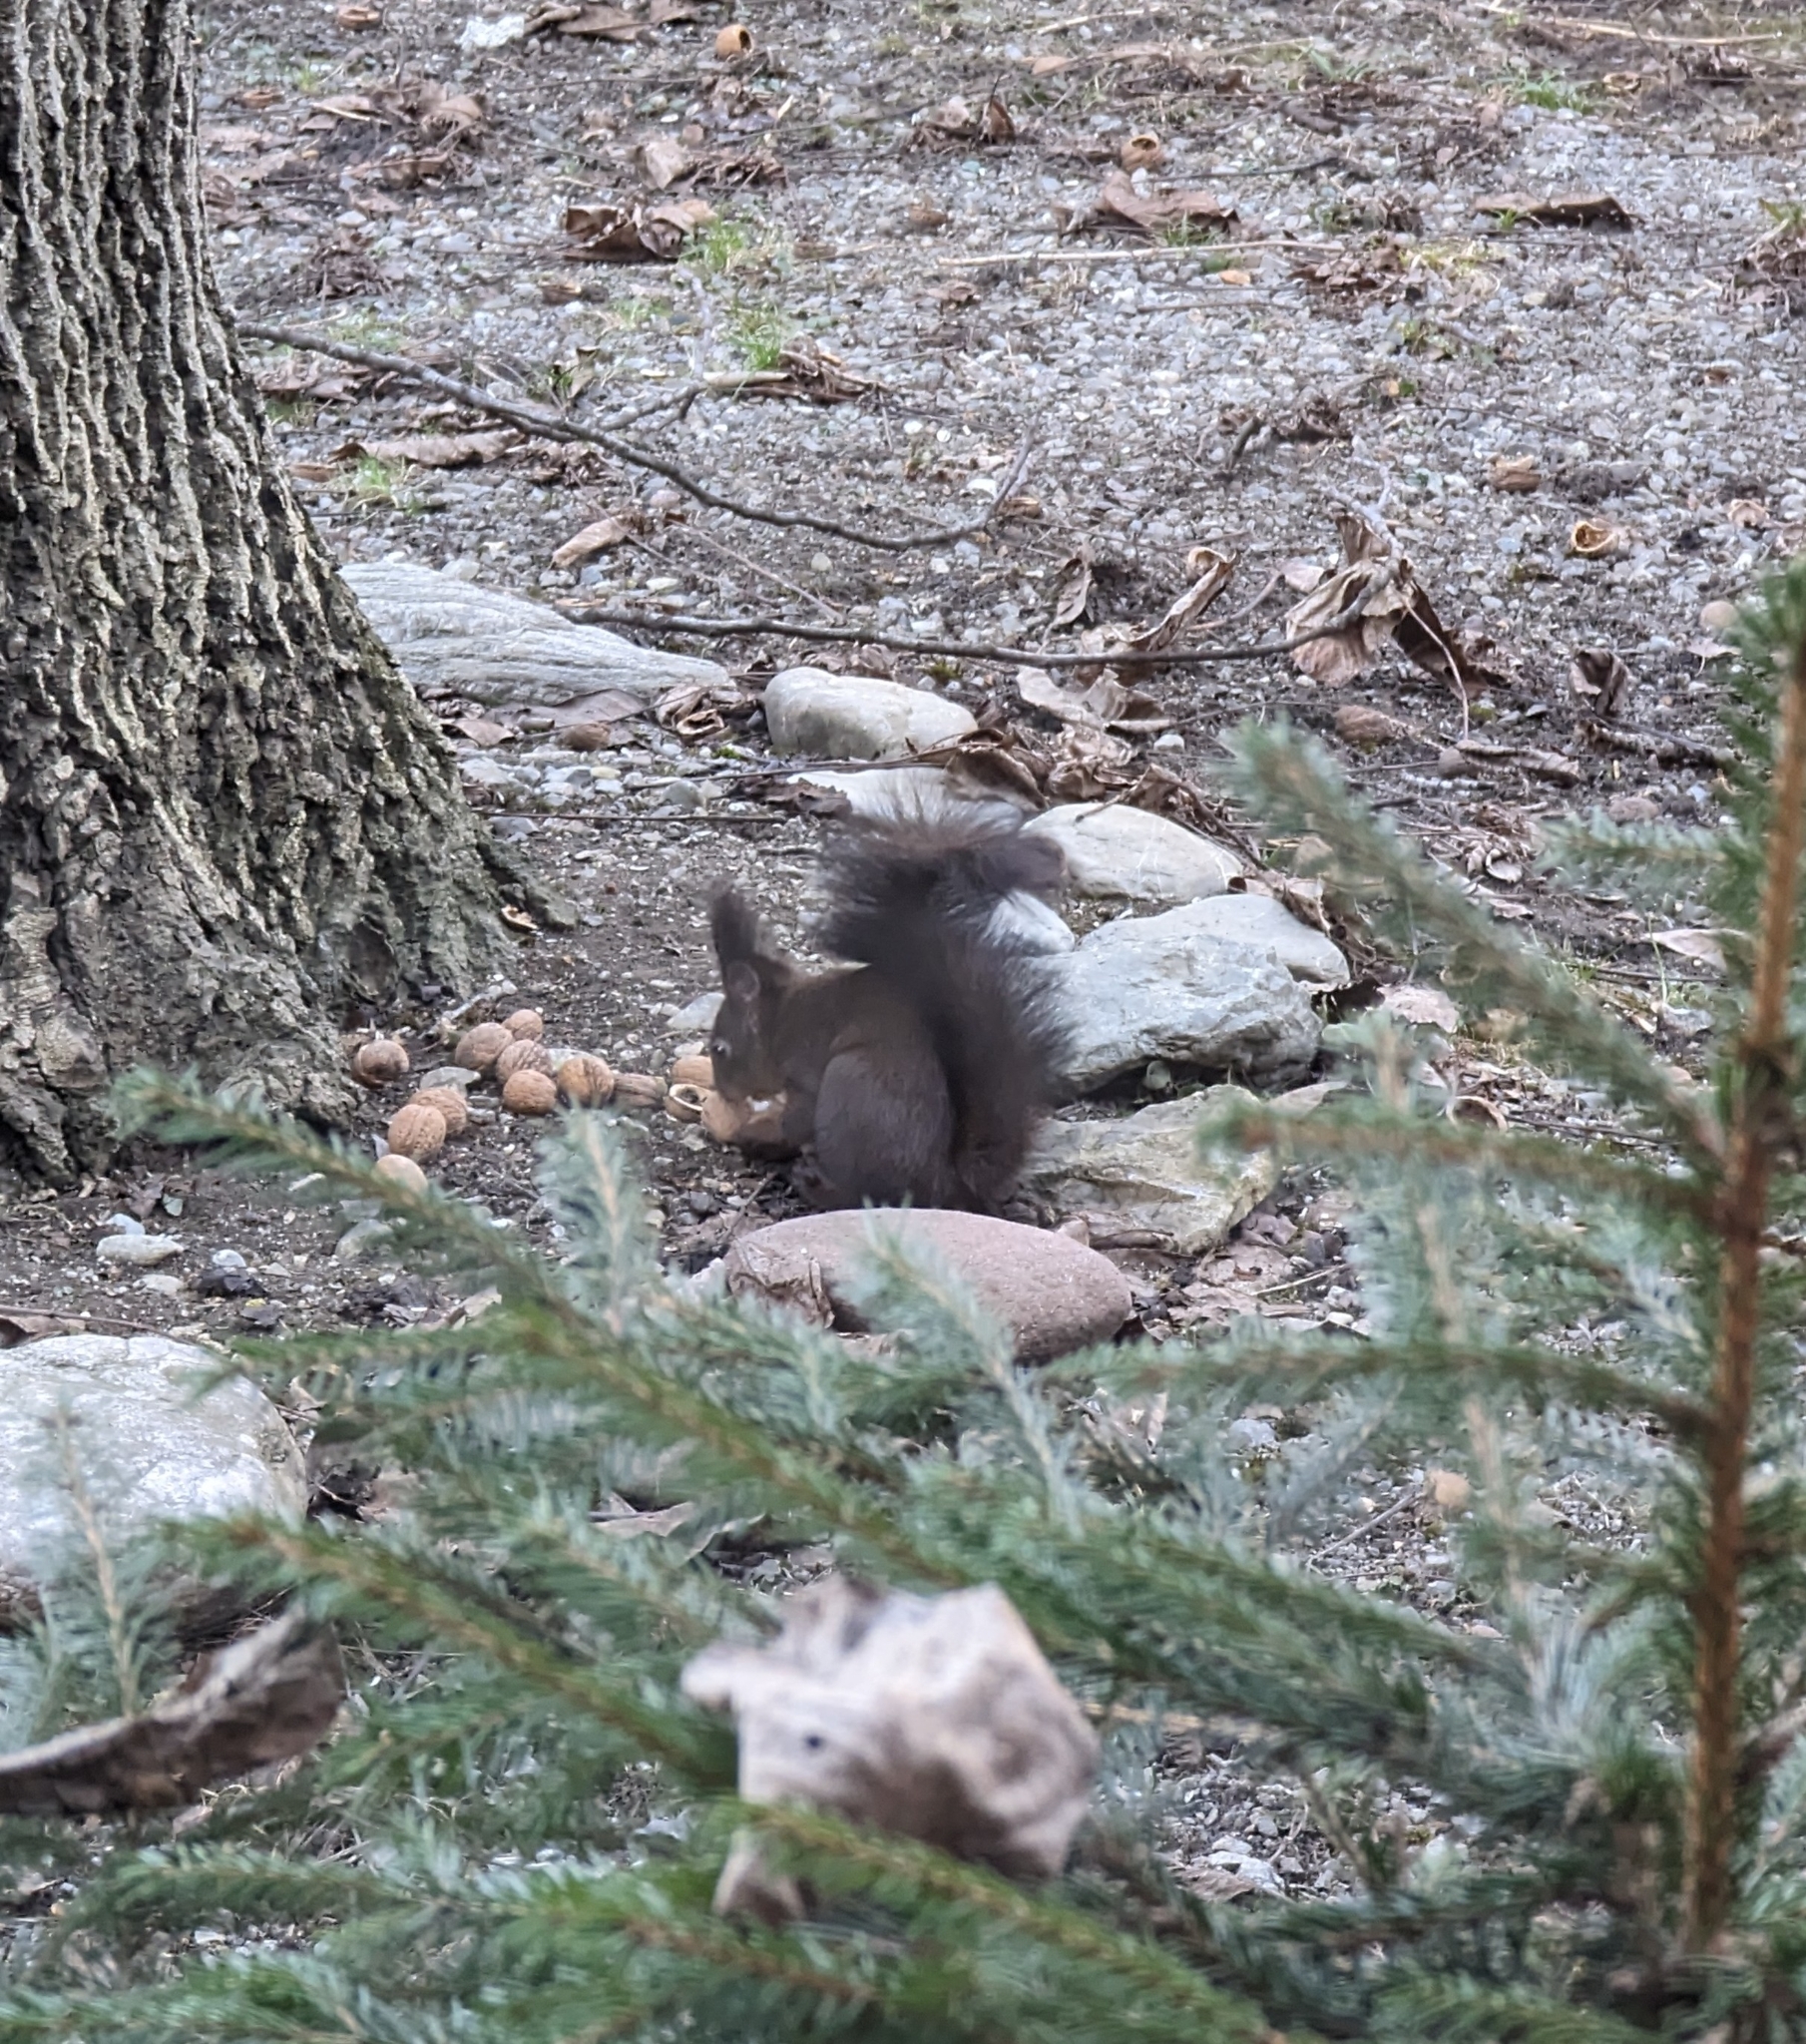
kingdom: Animalia
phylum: Chordata
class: Mammalia
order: Rodentia
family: Sciuridae
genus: Sciurus
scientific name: Sciurus vulgaris
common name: Eurasian red squirrel
